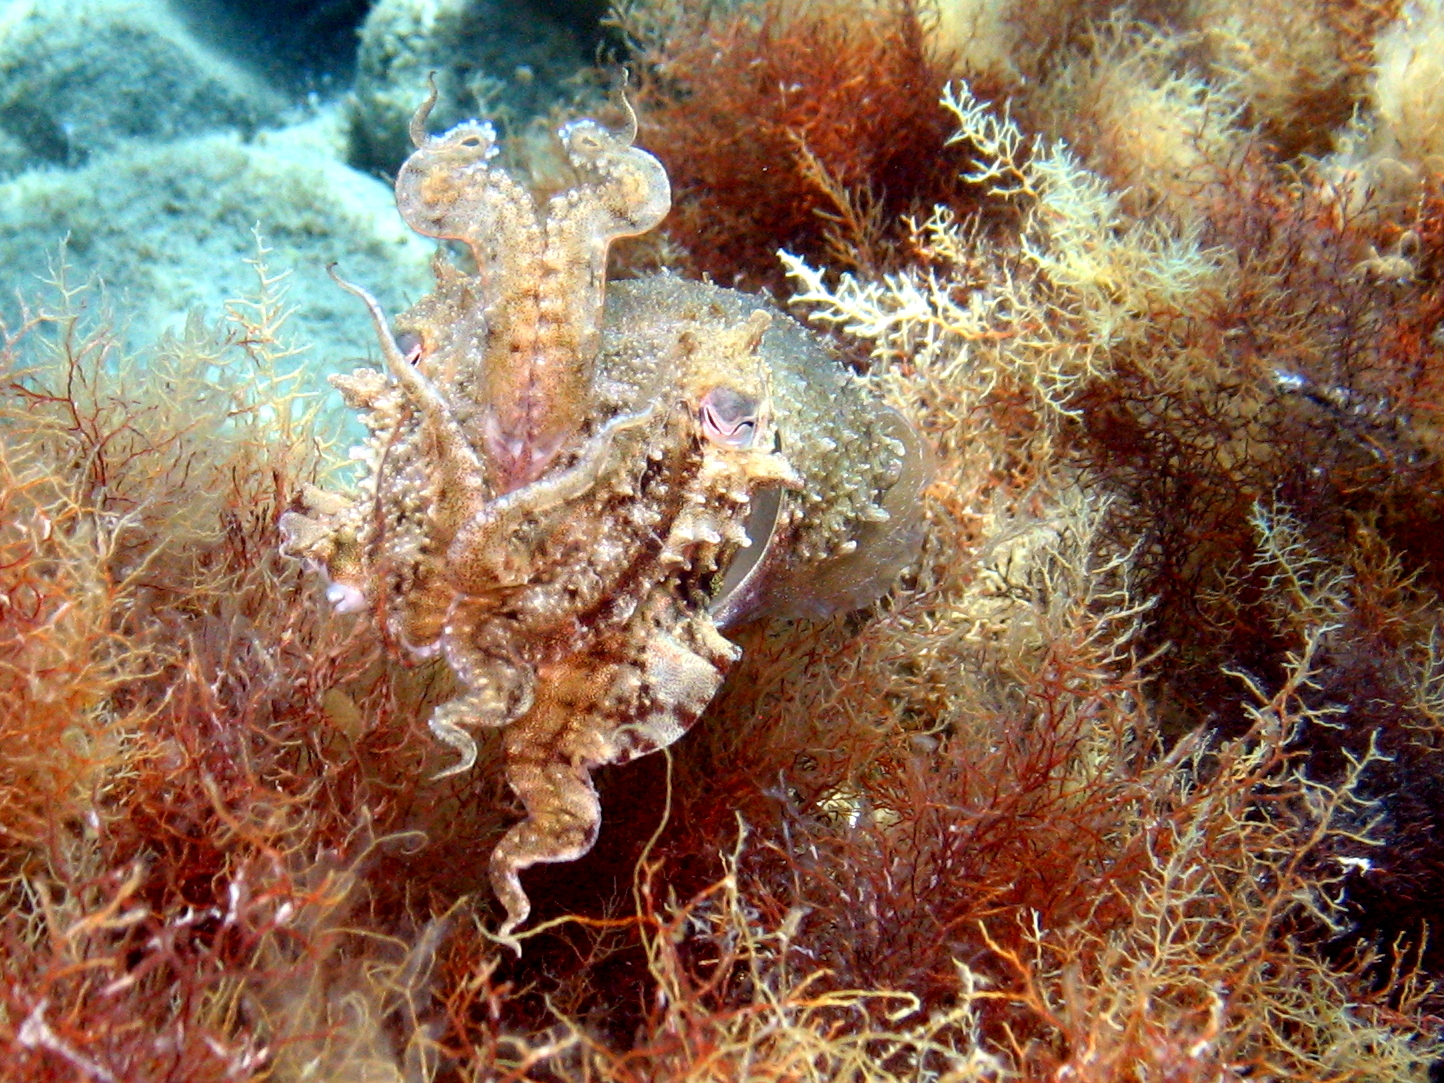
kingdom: Animalia
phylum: Mollusca
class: Cephalopoda
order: Sepiida
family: Sepiidae
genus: Sepia
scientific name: Sepia officinalis
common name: Common cuttlefish
